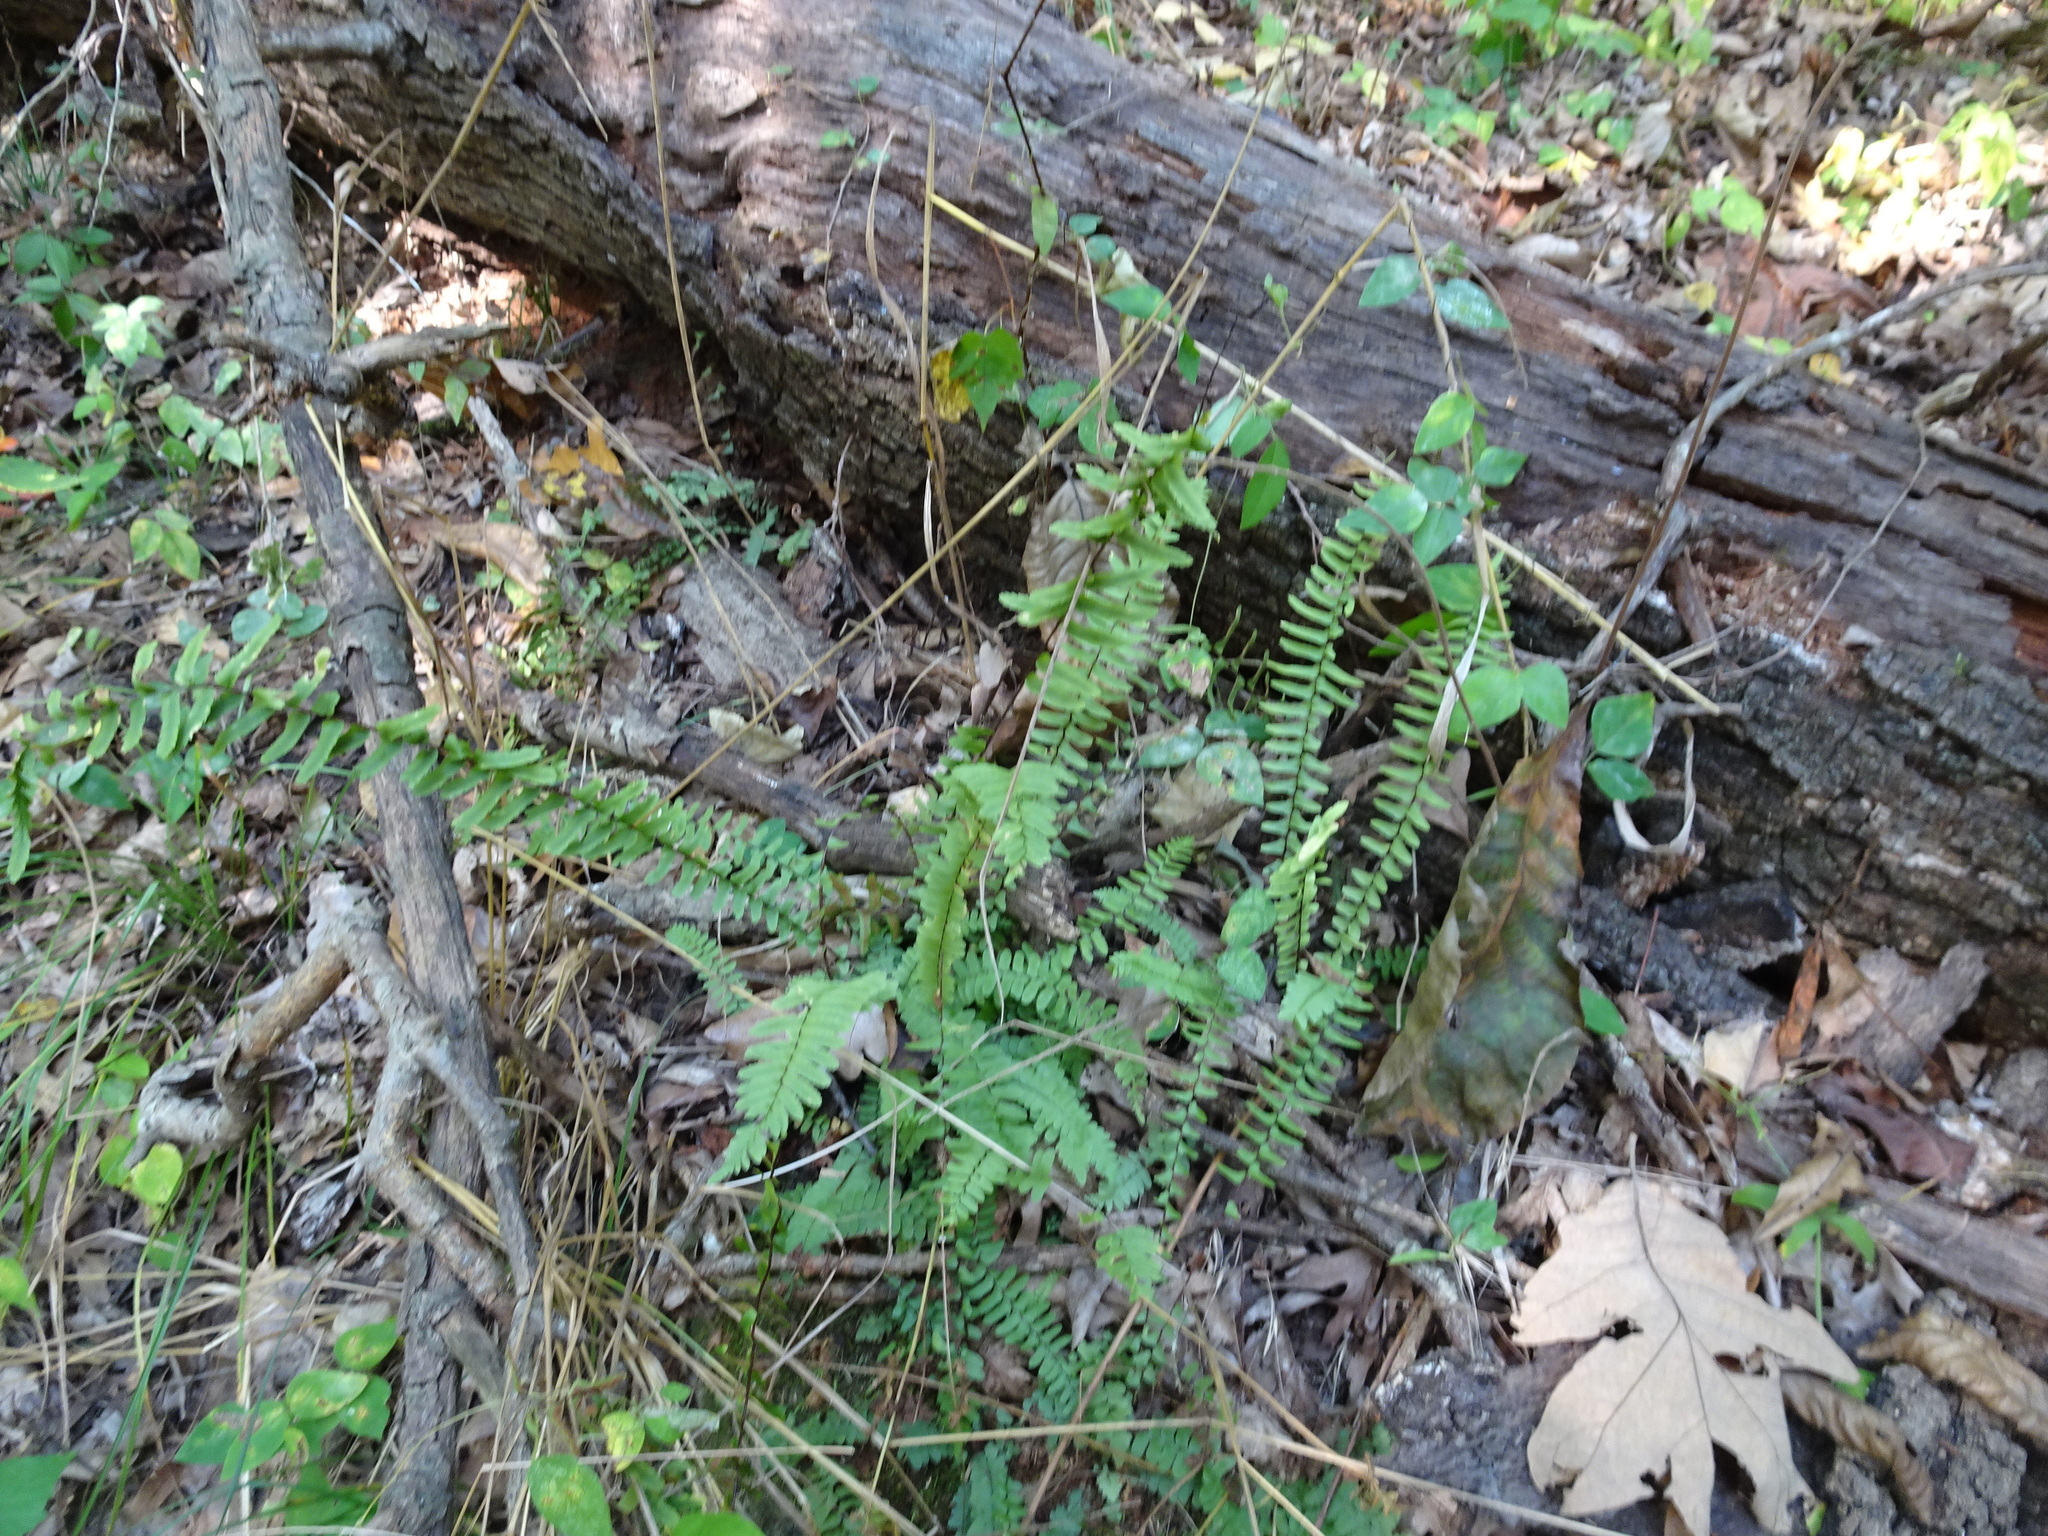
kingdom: Plantae
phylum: Tracheophyta
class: Polypodiopsida
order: Polypodiales
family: Aspleniaceae
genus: Asplenium
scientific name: Asplenium platyneuron
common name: Ebony spleenwort
